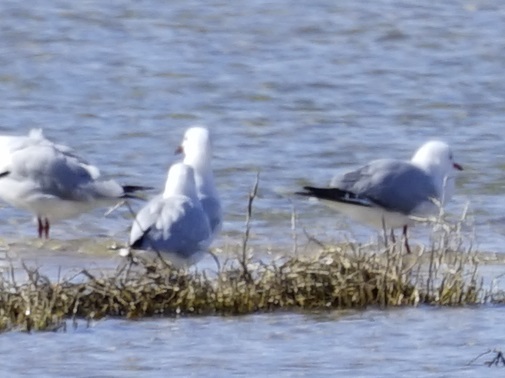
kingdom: Animalia
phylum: Chordata
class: Aves
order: Charadriiformes
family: Laridae
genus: Chroicocephalus
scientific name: Chroicocephalus novaehollandiae
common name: Silver gull
